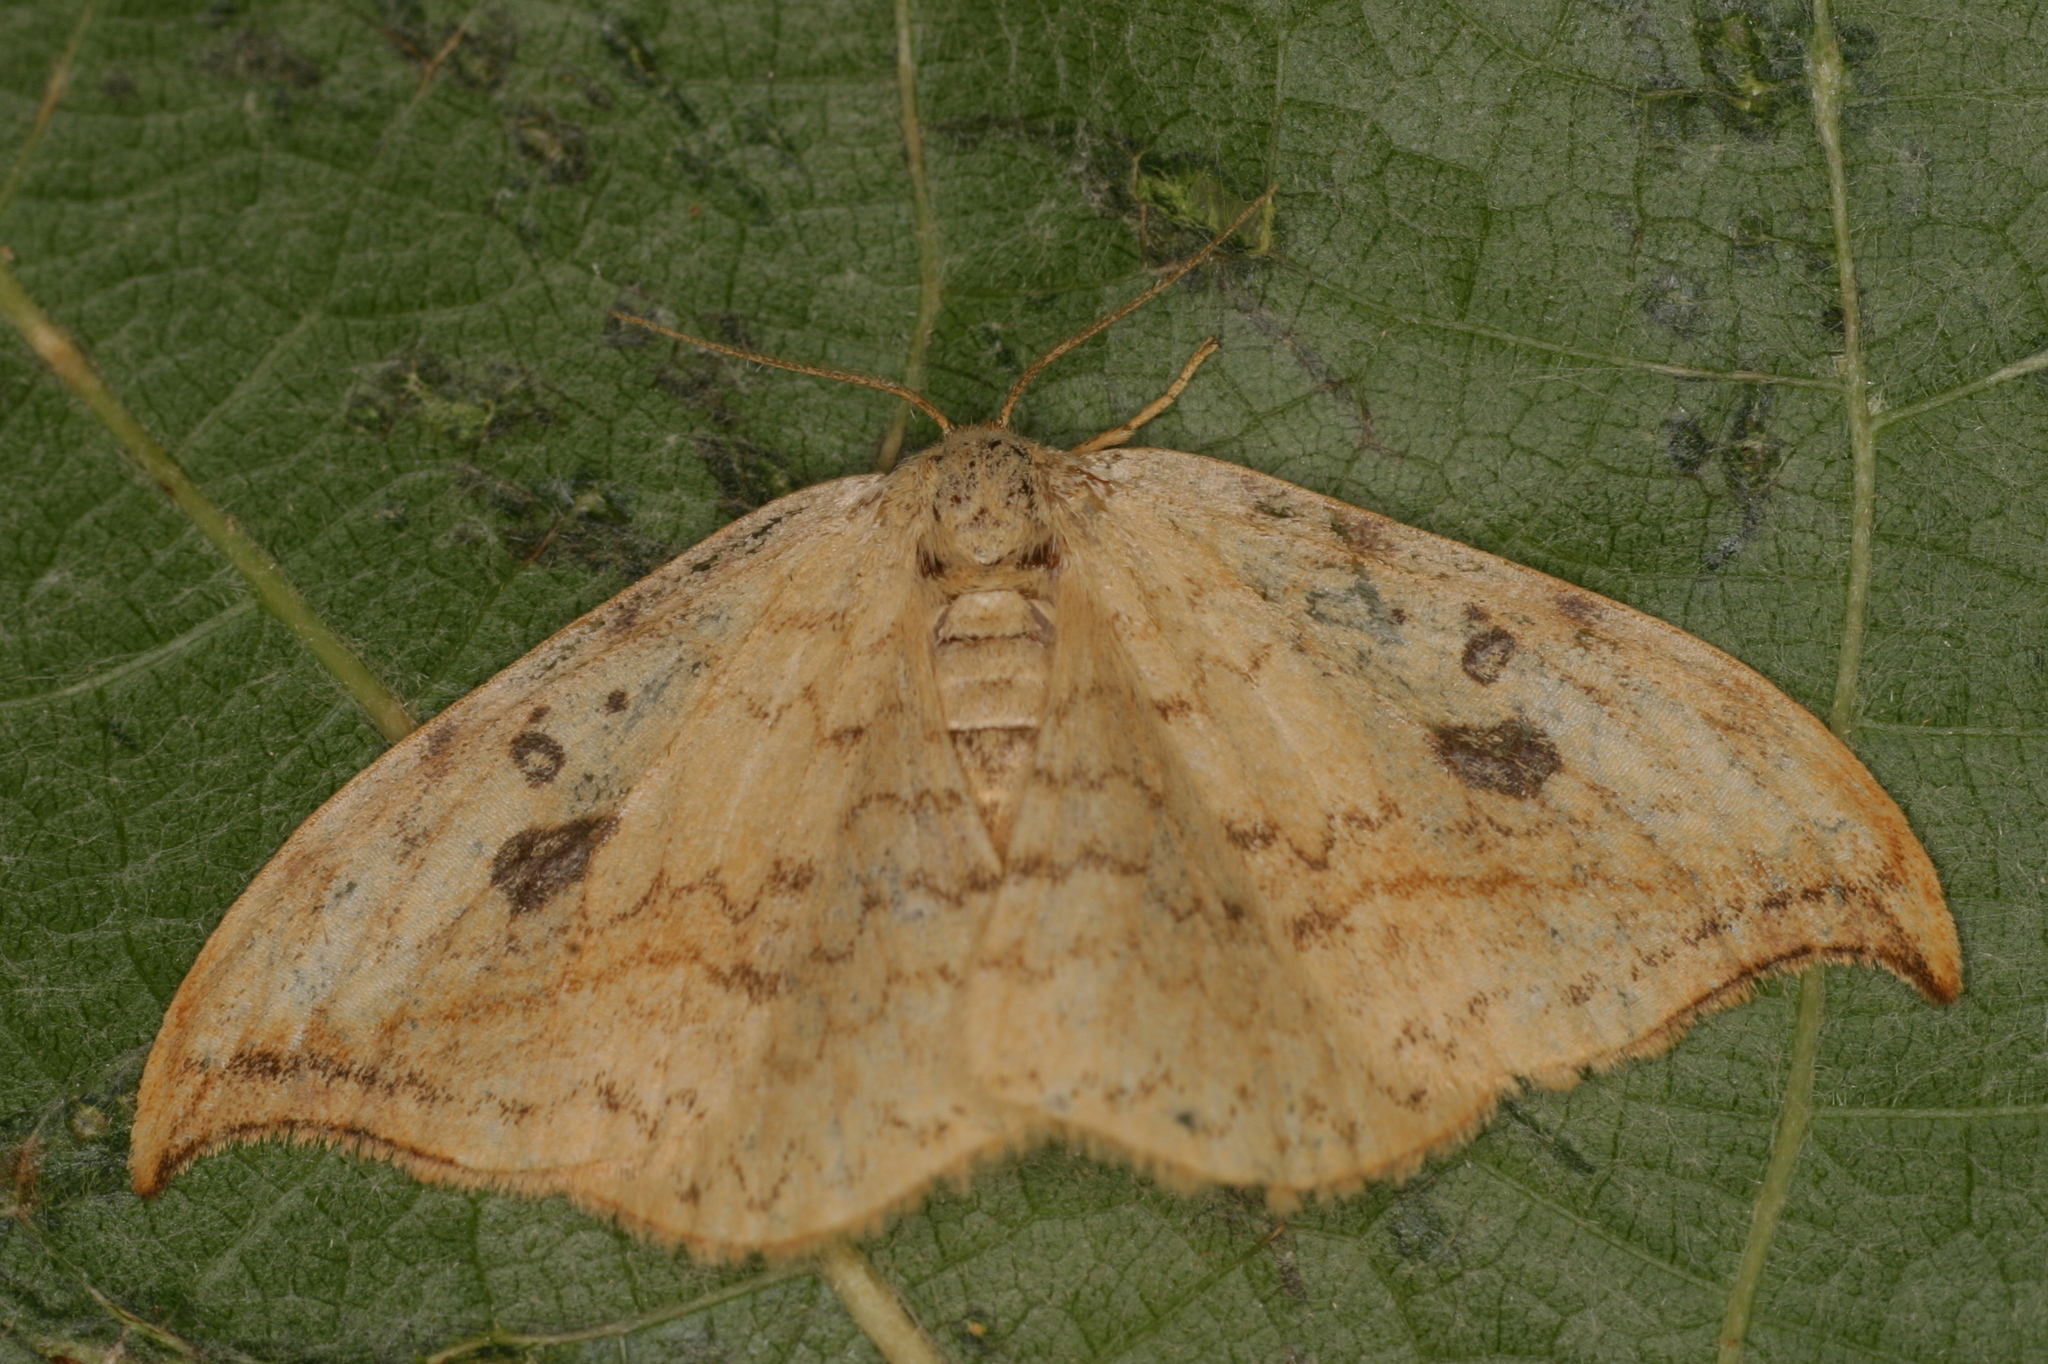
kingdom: Animalia
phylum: Arthropoda
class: Insecta
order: Lepidoptera
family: Drepanidae
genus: Drepana
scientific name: Drepana falcataria
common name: Pebble hook-tip
